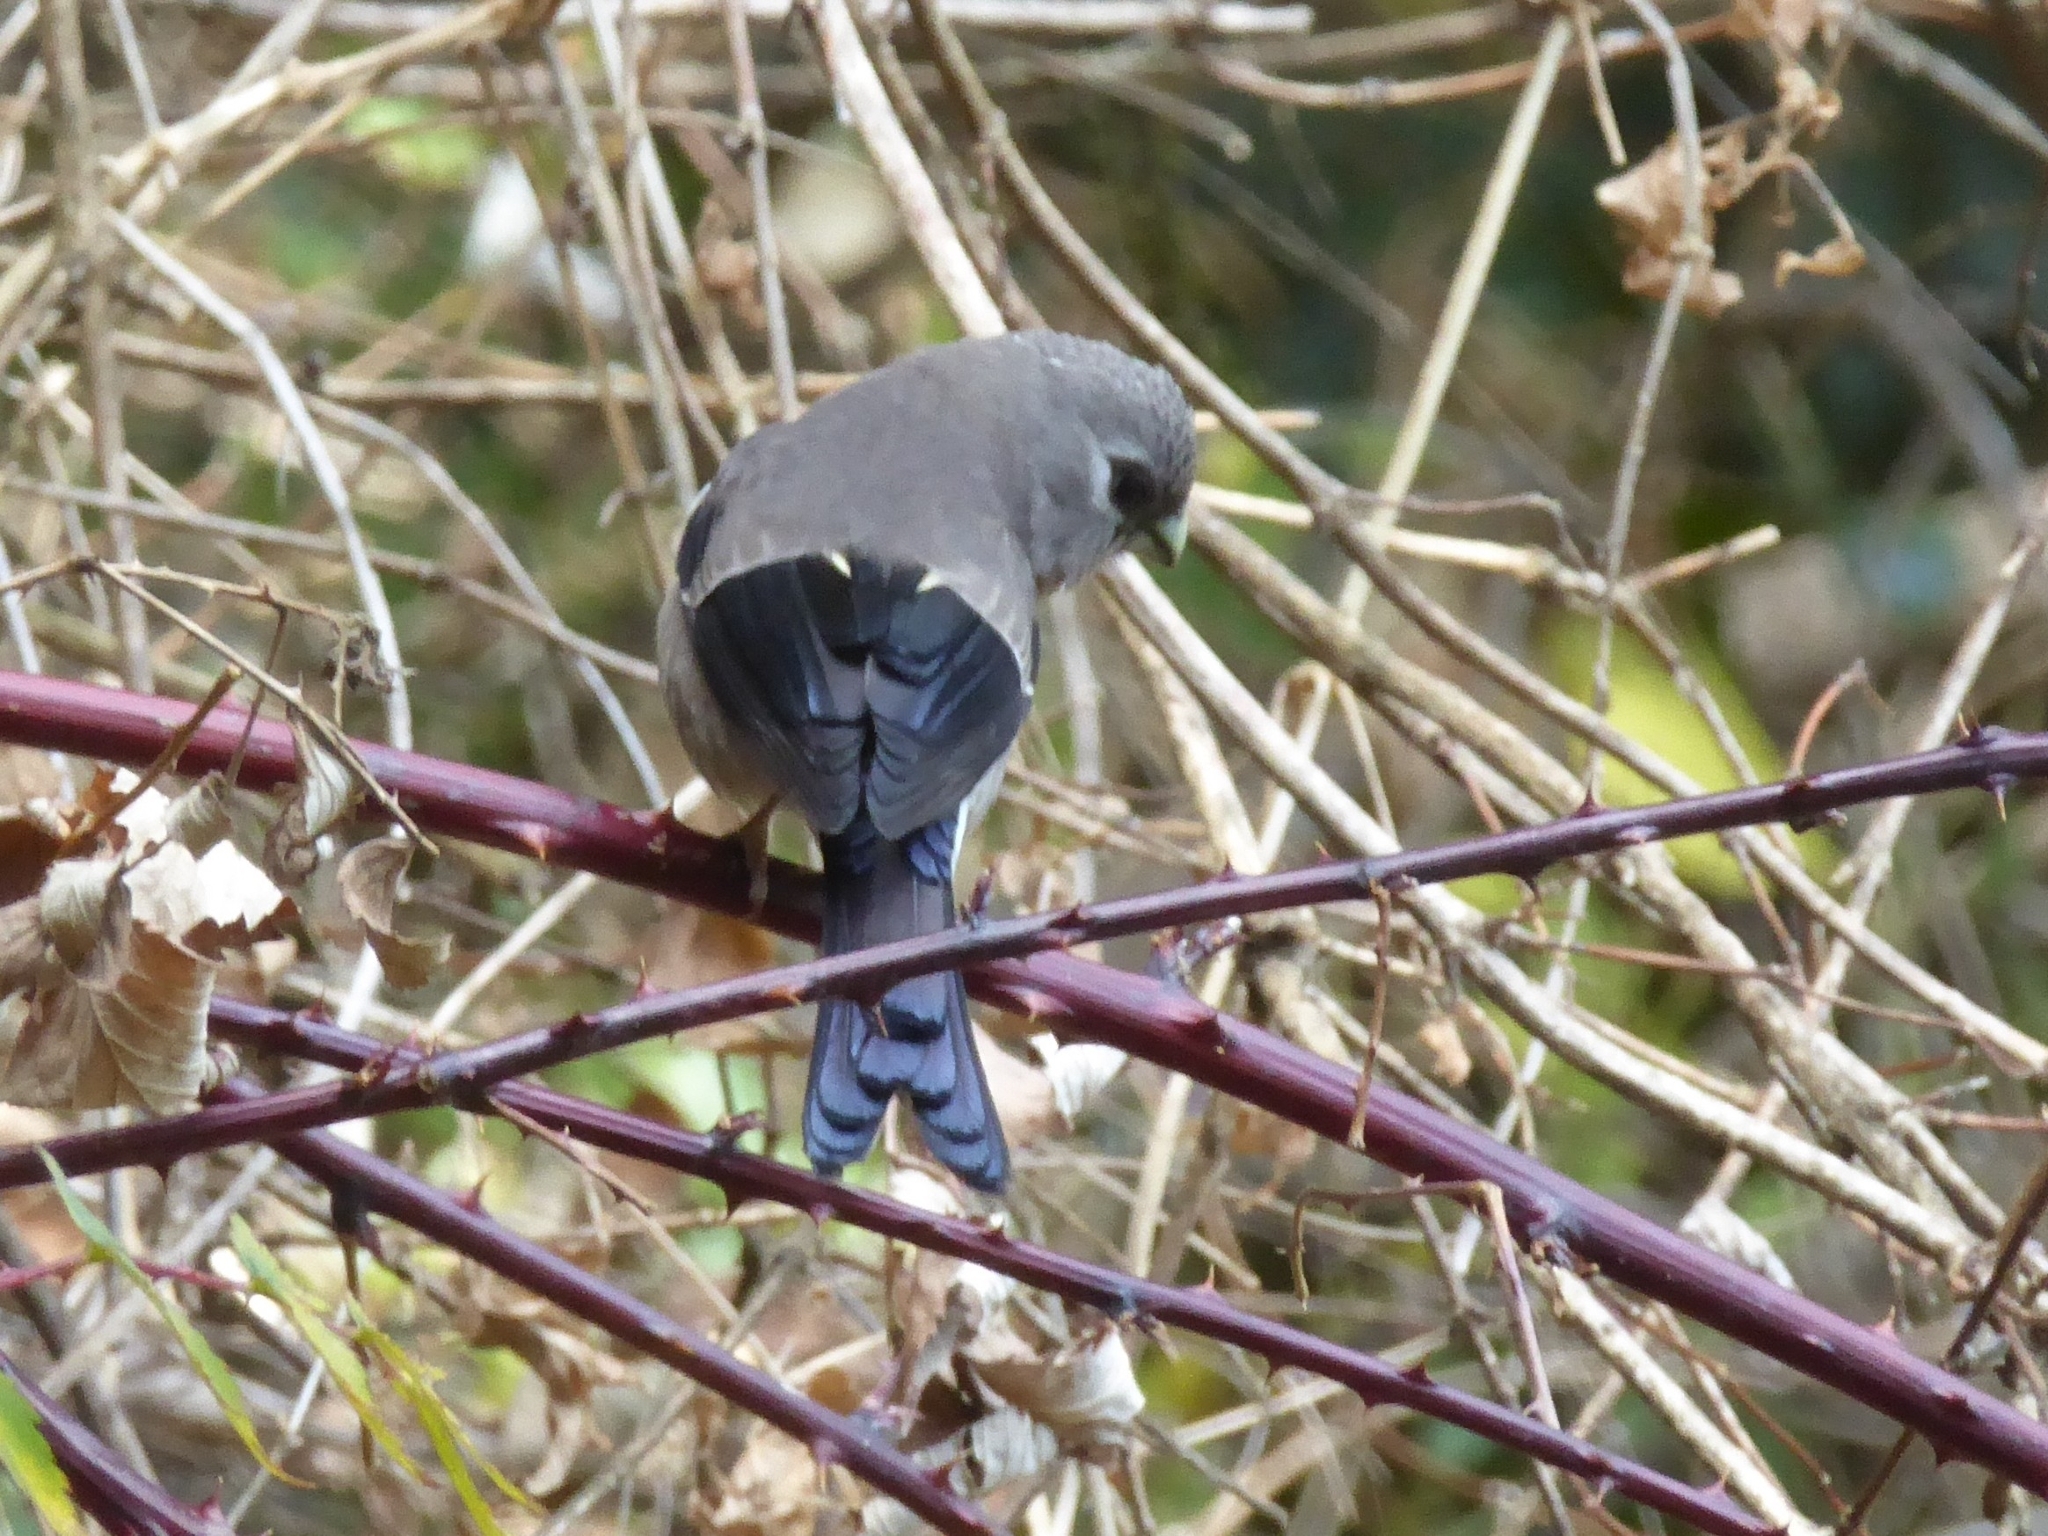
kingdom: Animalia
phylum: Chordata
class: Aves
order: Passeriformes
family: Fringillidae
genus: Pyrrhula
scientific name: Pyrrhula nipalensis
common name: Brown bullfinch
